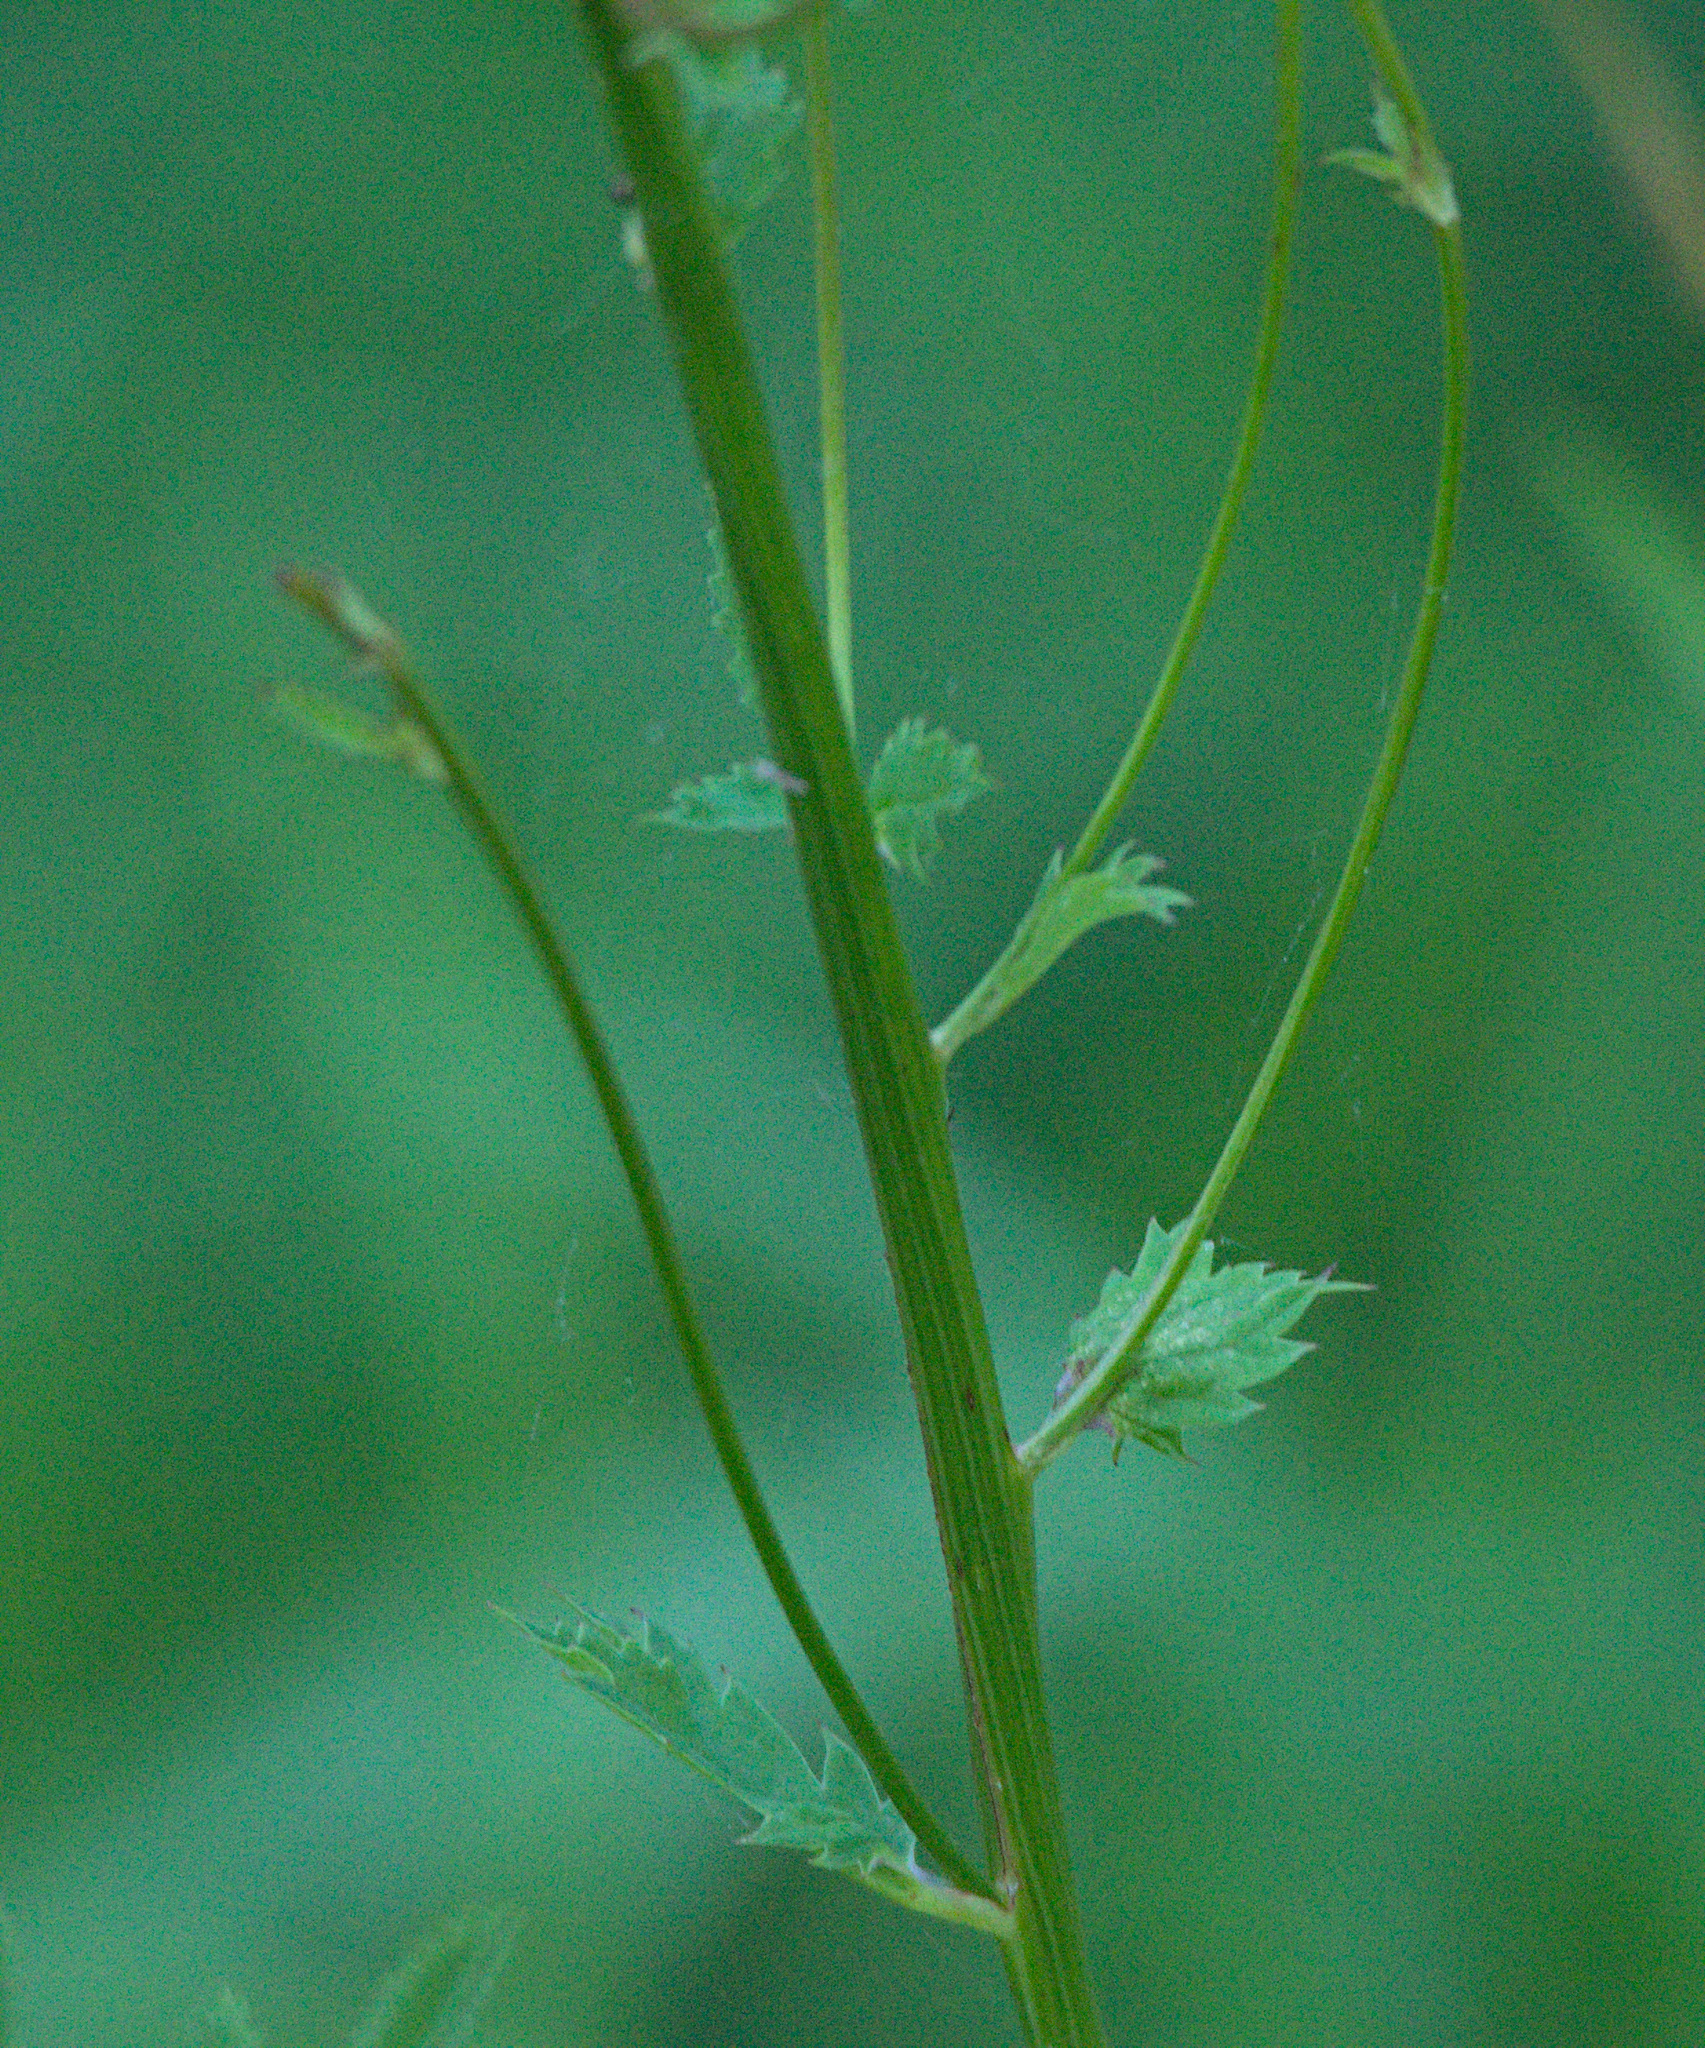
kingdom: Plantae
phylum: Tracheophyta
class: Magnoliopsida
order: Rosales
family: Rosaceae
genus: Sanguisorba
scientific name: Sanguisorba officinalis
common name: Great burnet
